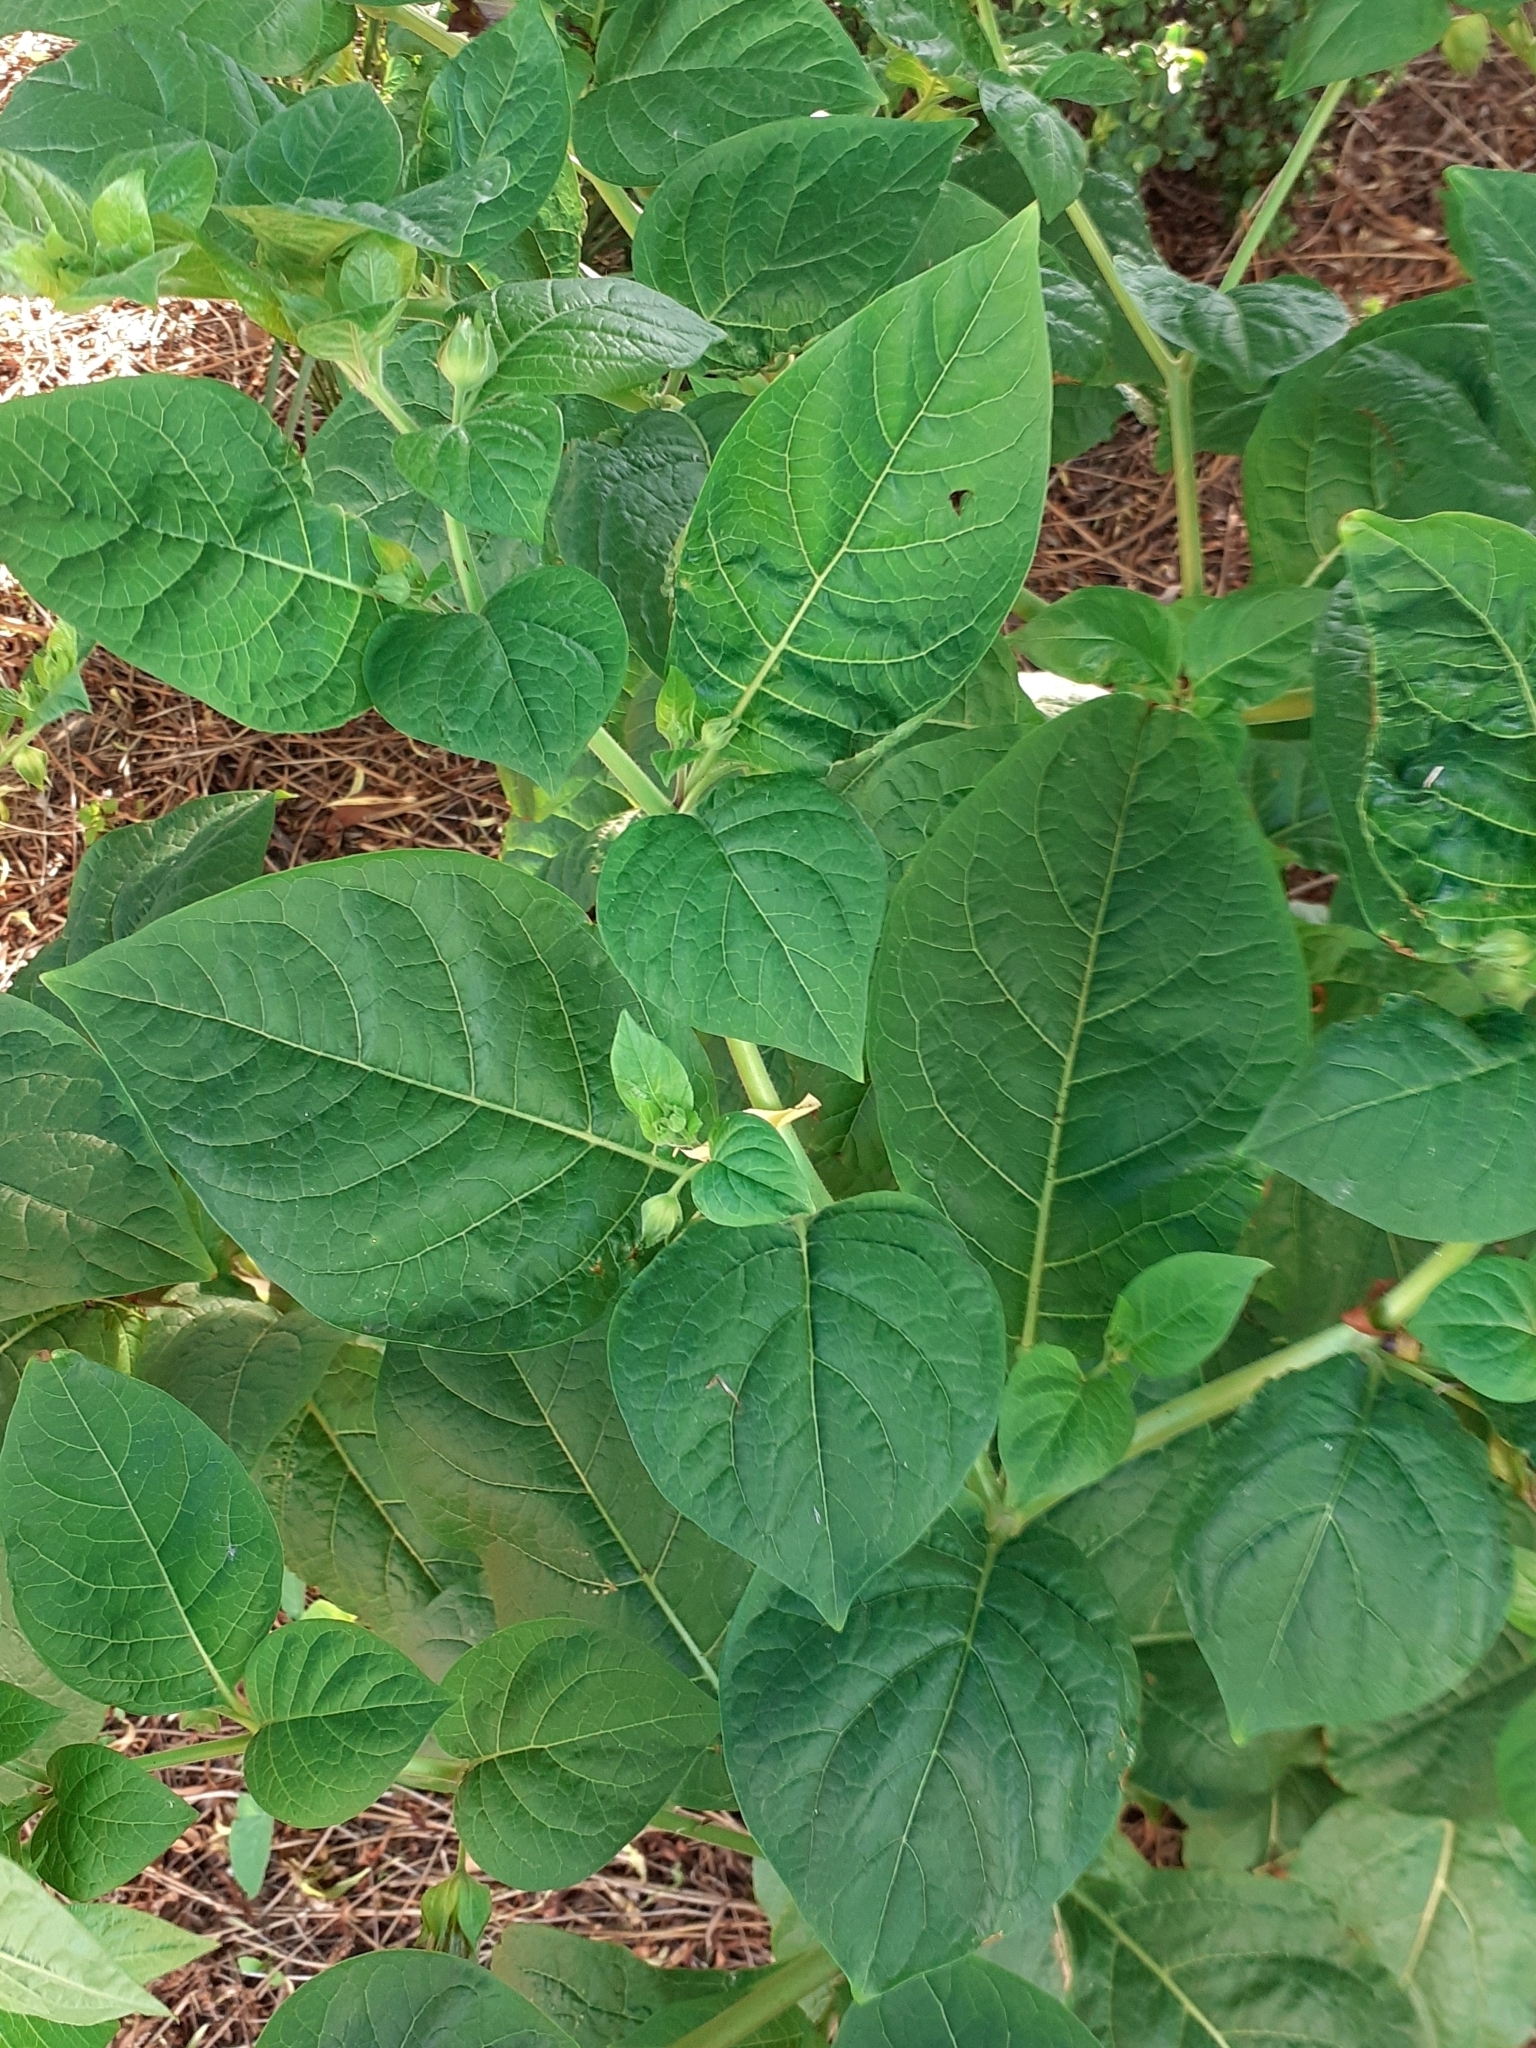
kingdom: Plantae
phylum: Tracheophyta
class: Magnoliopsida
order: Solanales
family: Solanaceae
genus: Atropa
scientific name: Atropa belladonna
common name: Deadly nightshade
